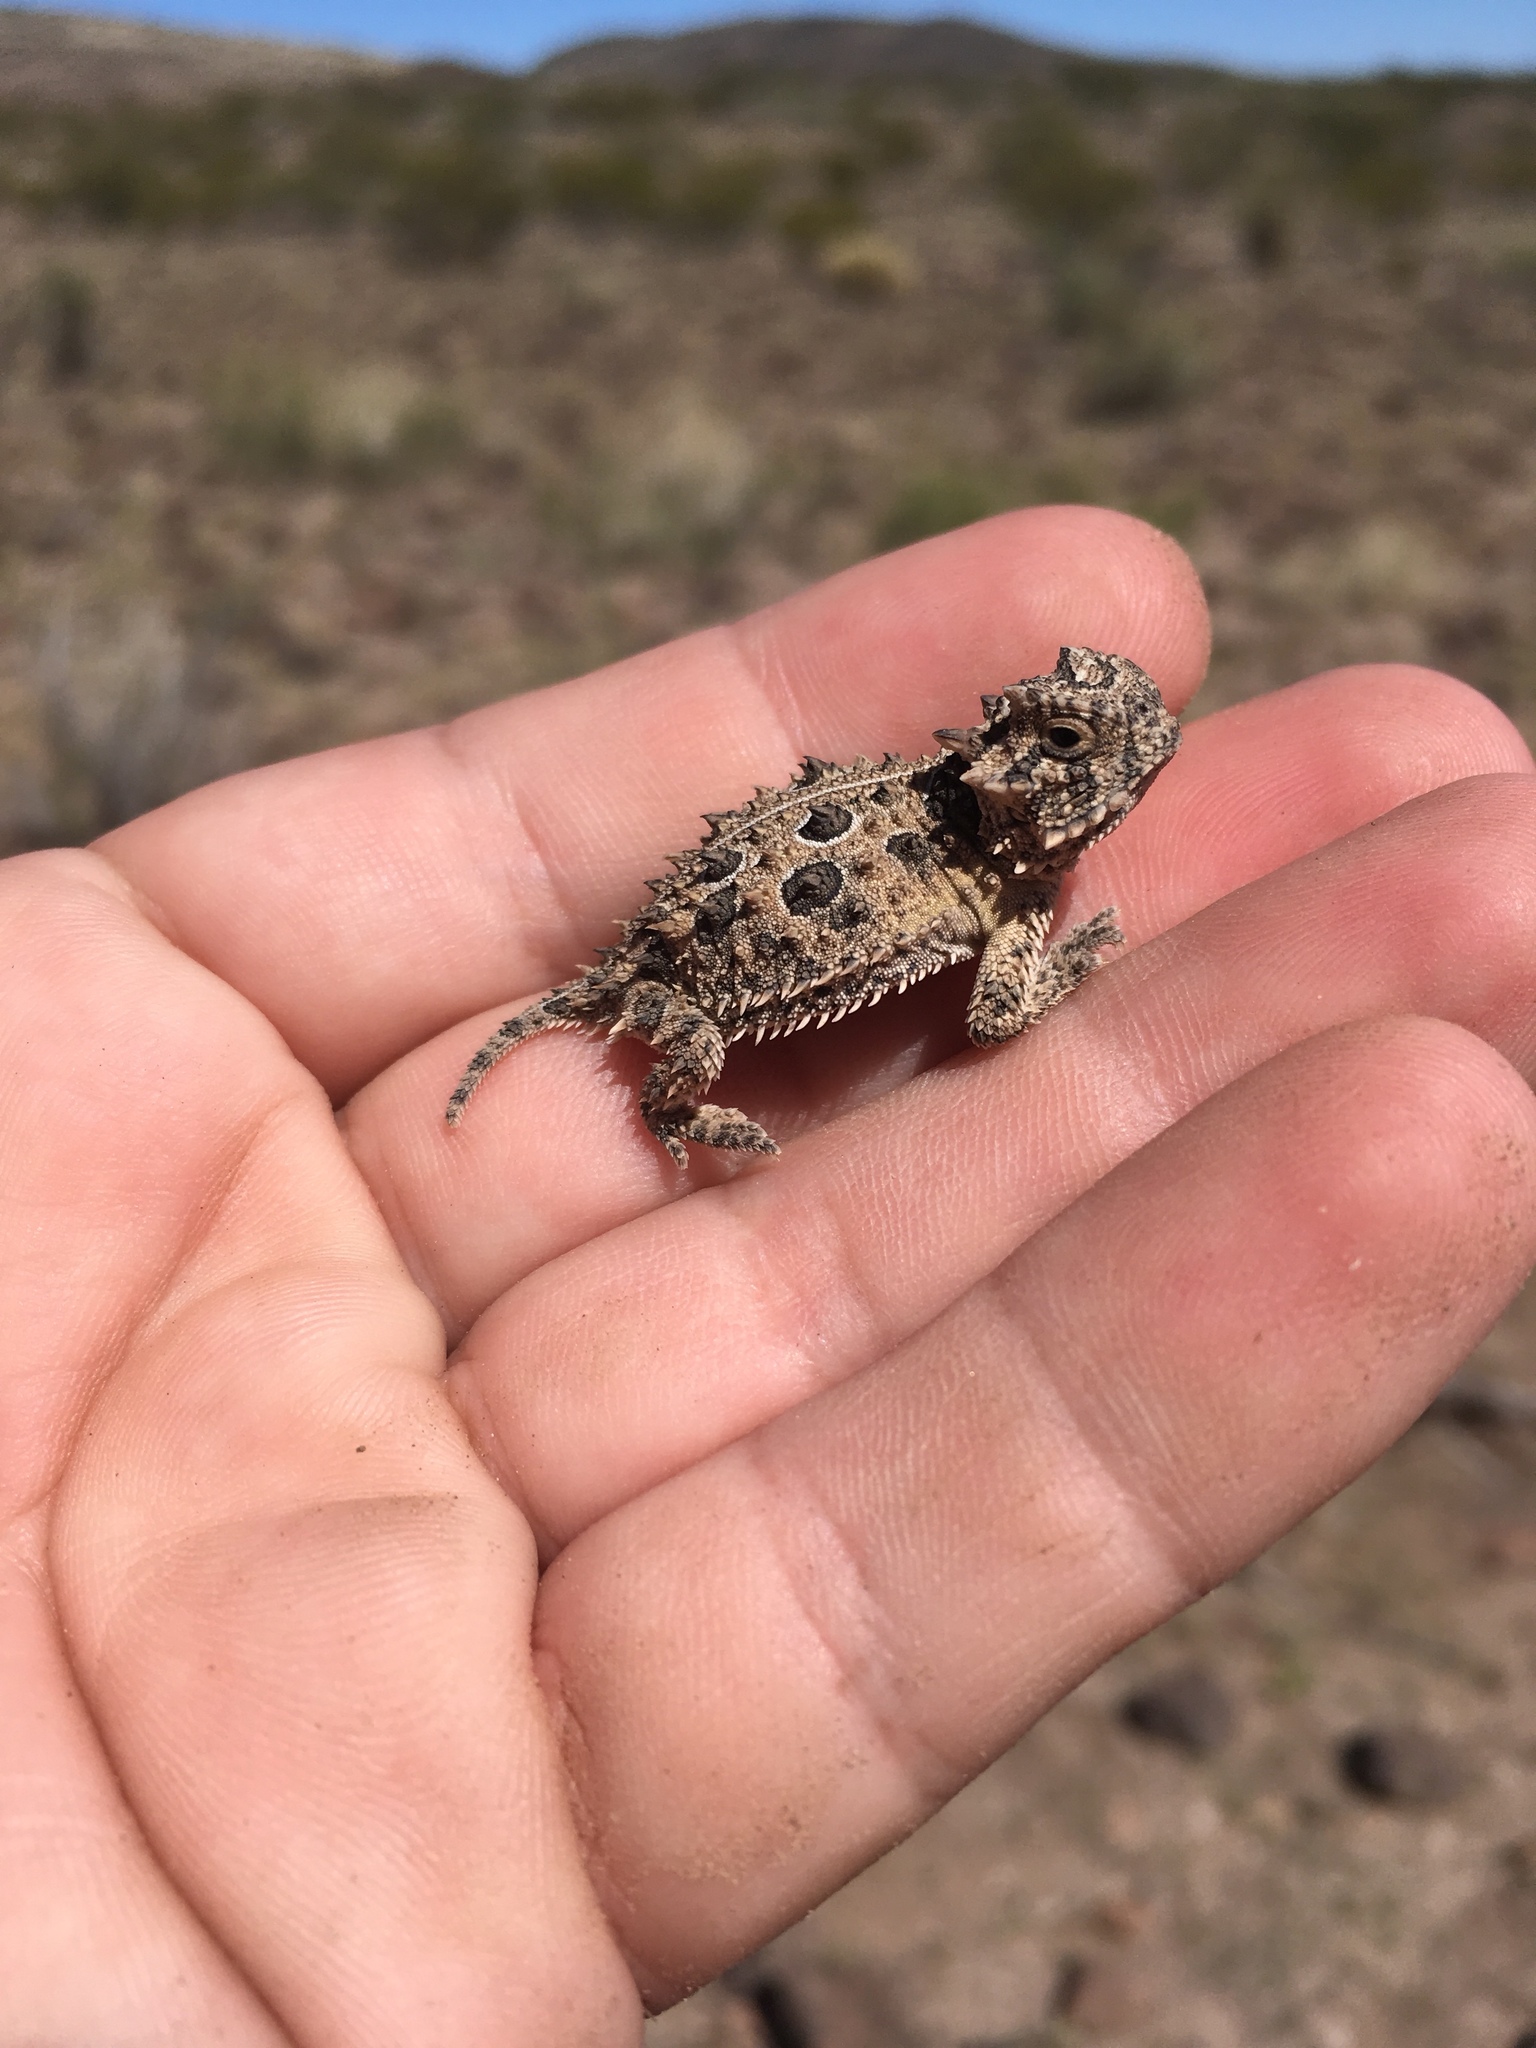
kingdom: Animalia
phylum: Chordata
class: Squamata
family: Phrynosomatidae
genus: Phrynosoma
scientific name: Phrynosoma cornutum
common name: Texas horned lizard
